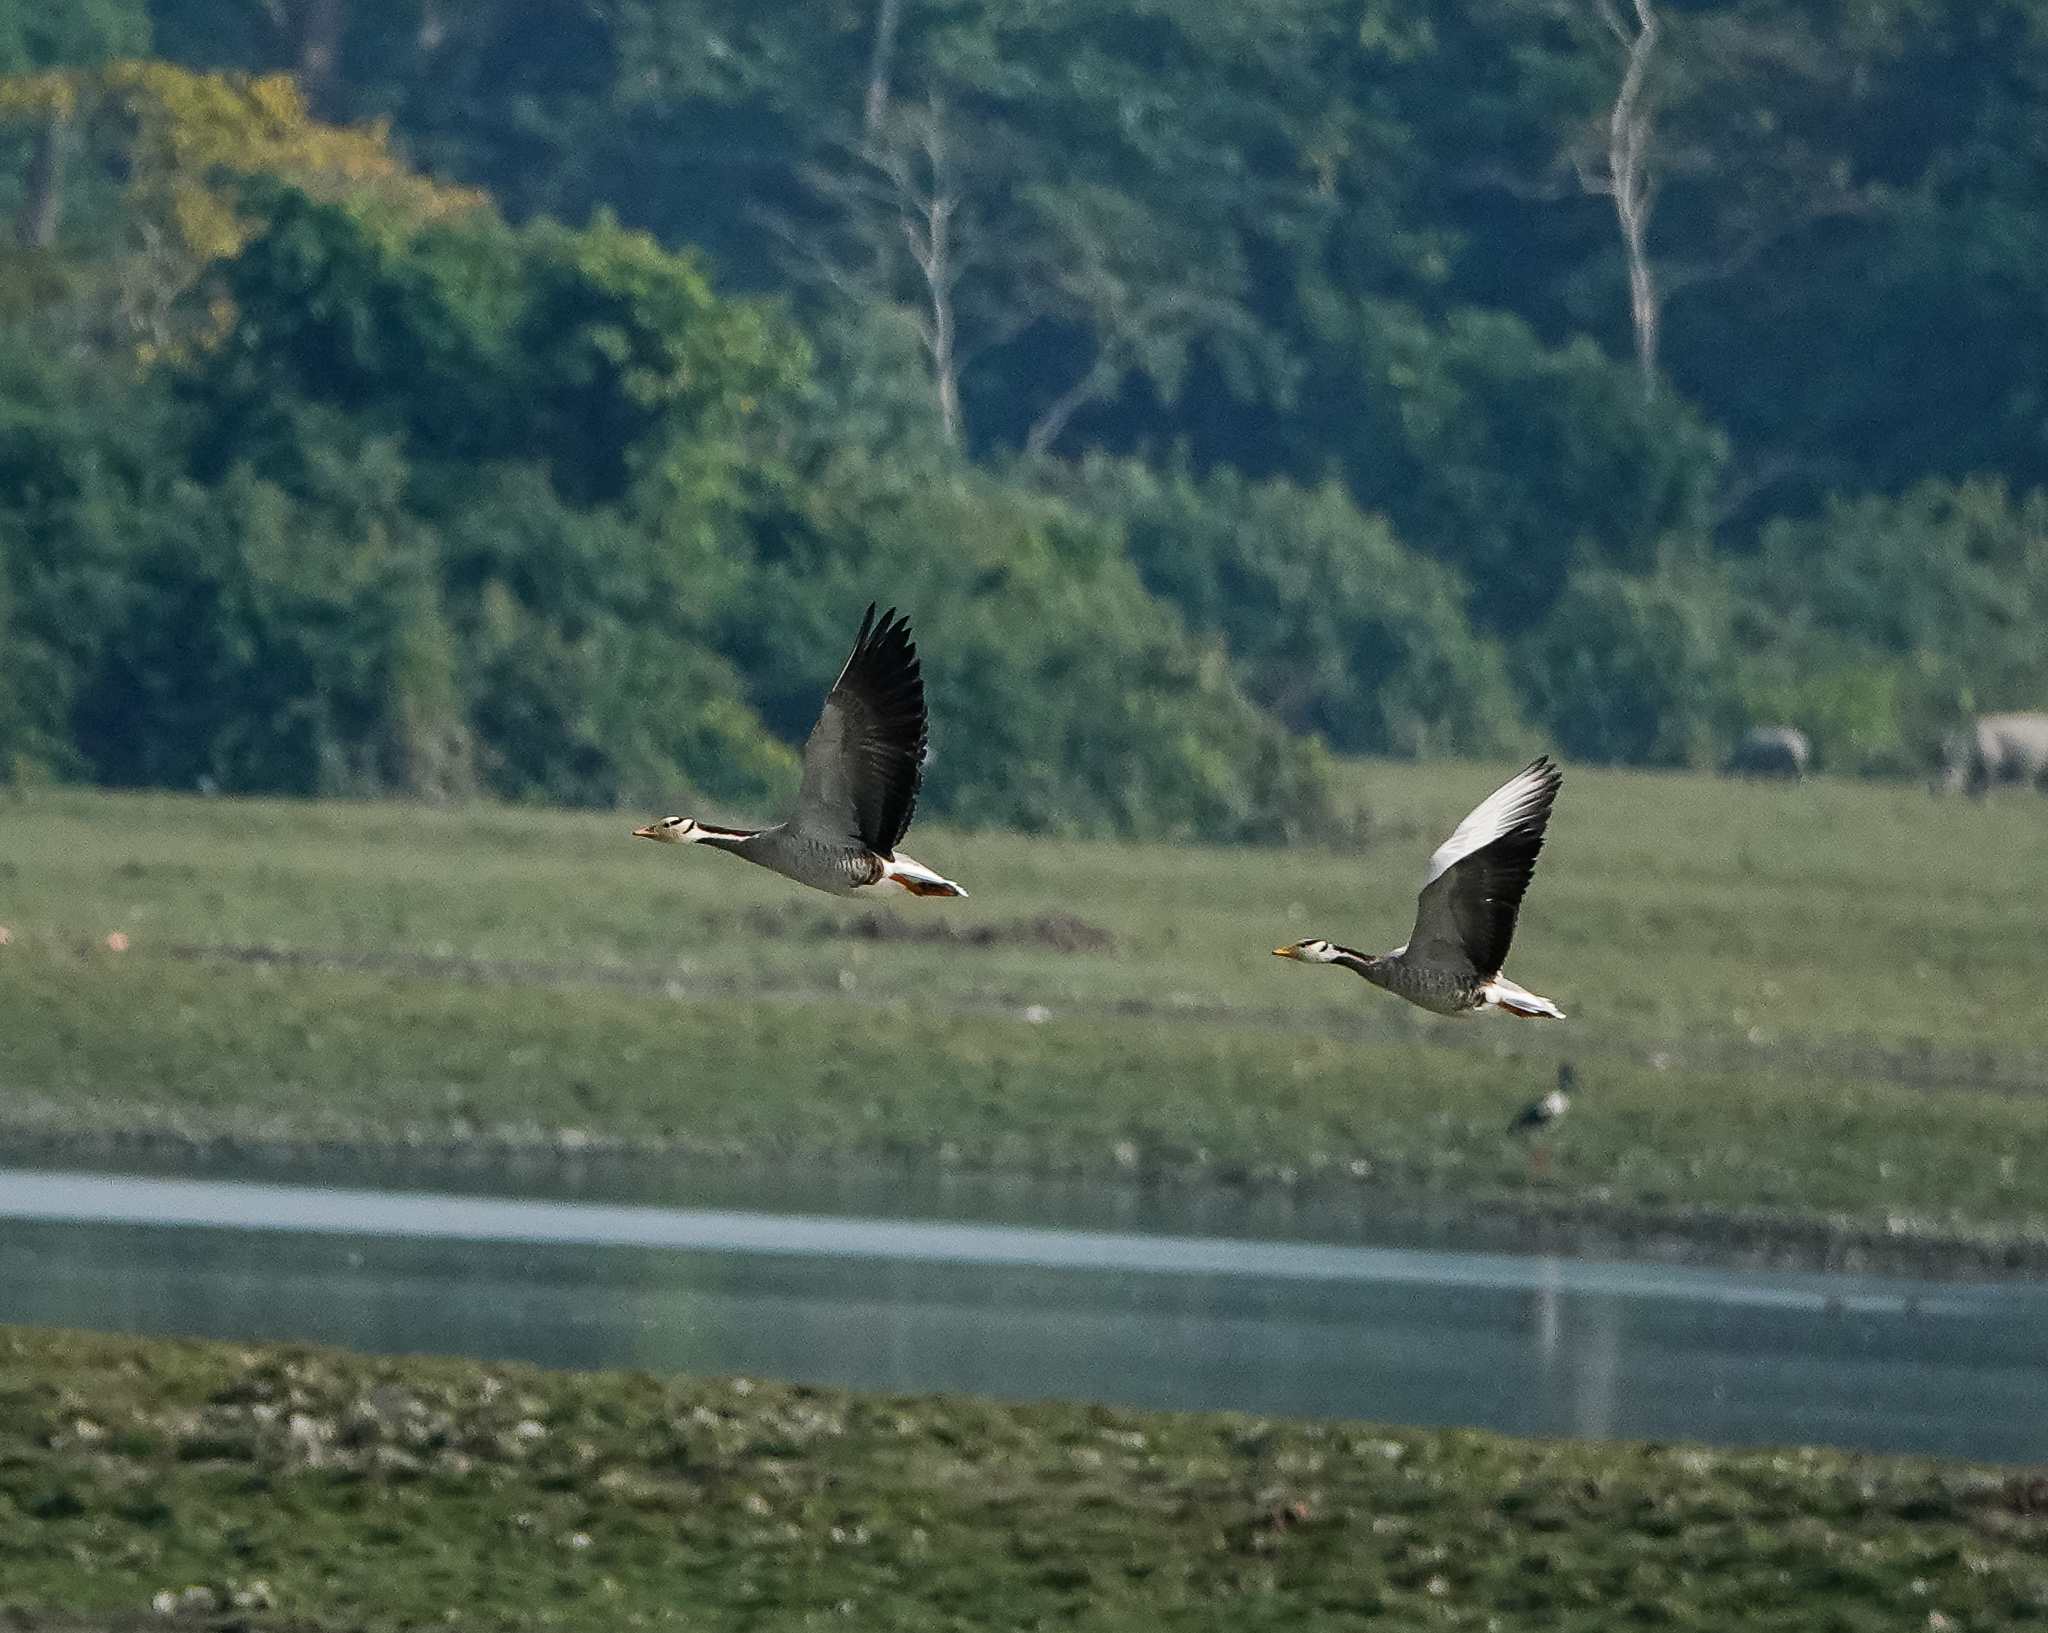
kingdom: Animalia
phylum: Chordata
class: Aves
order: Anseriformes
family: Anatidae
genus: Anser
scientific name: Anser indicus
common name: Bar-headed goose
